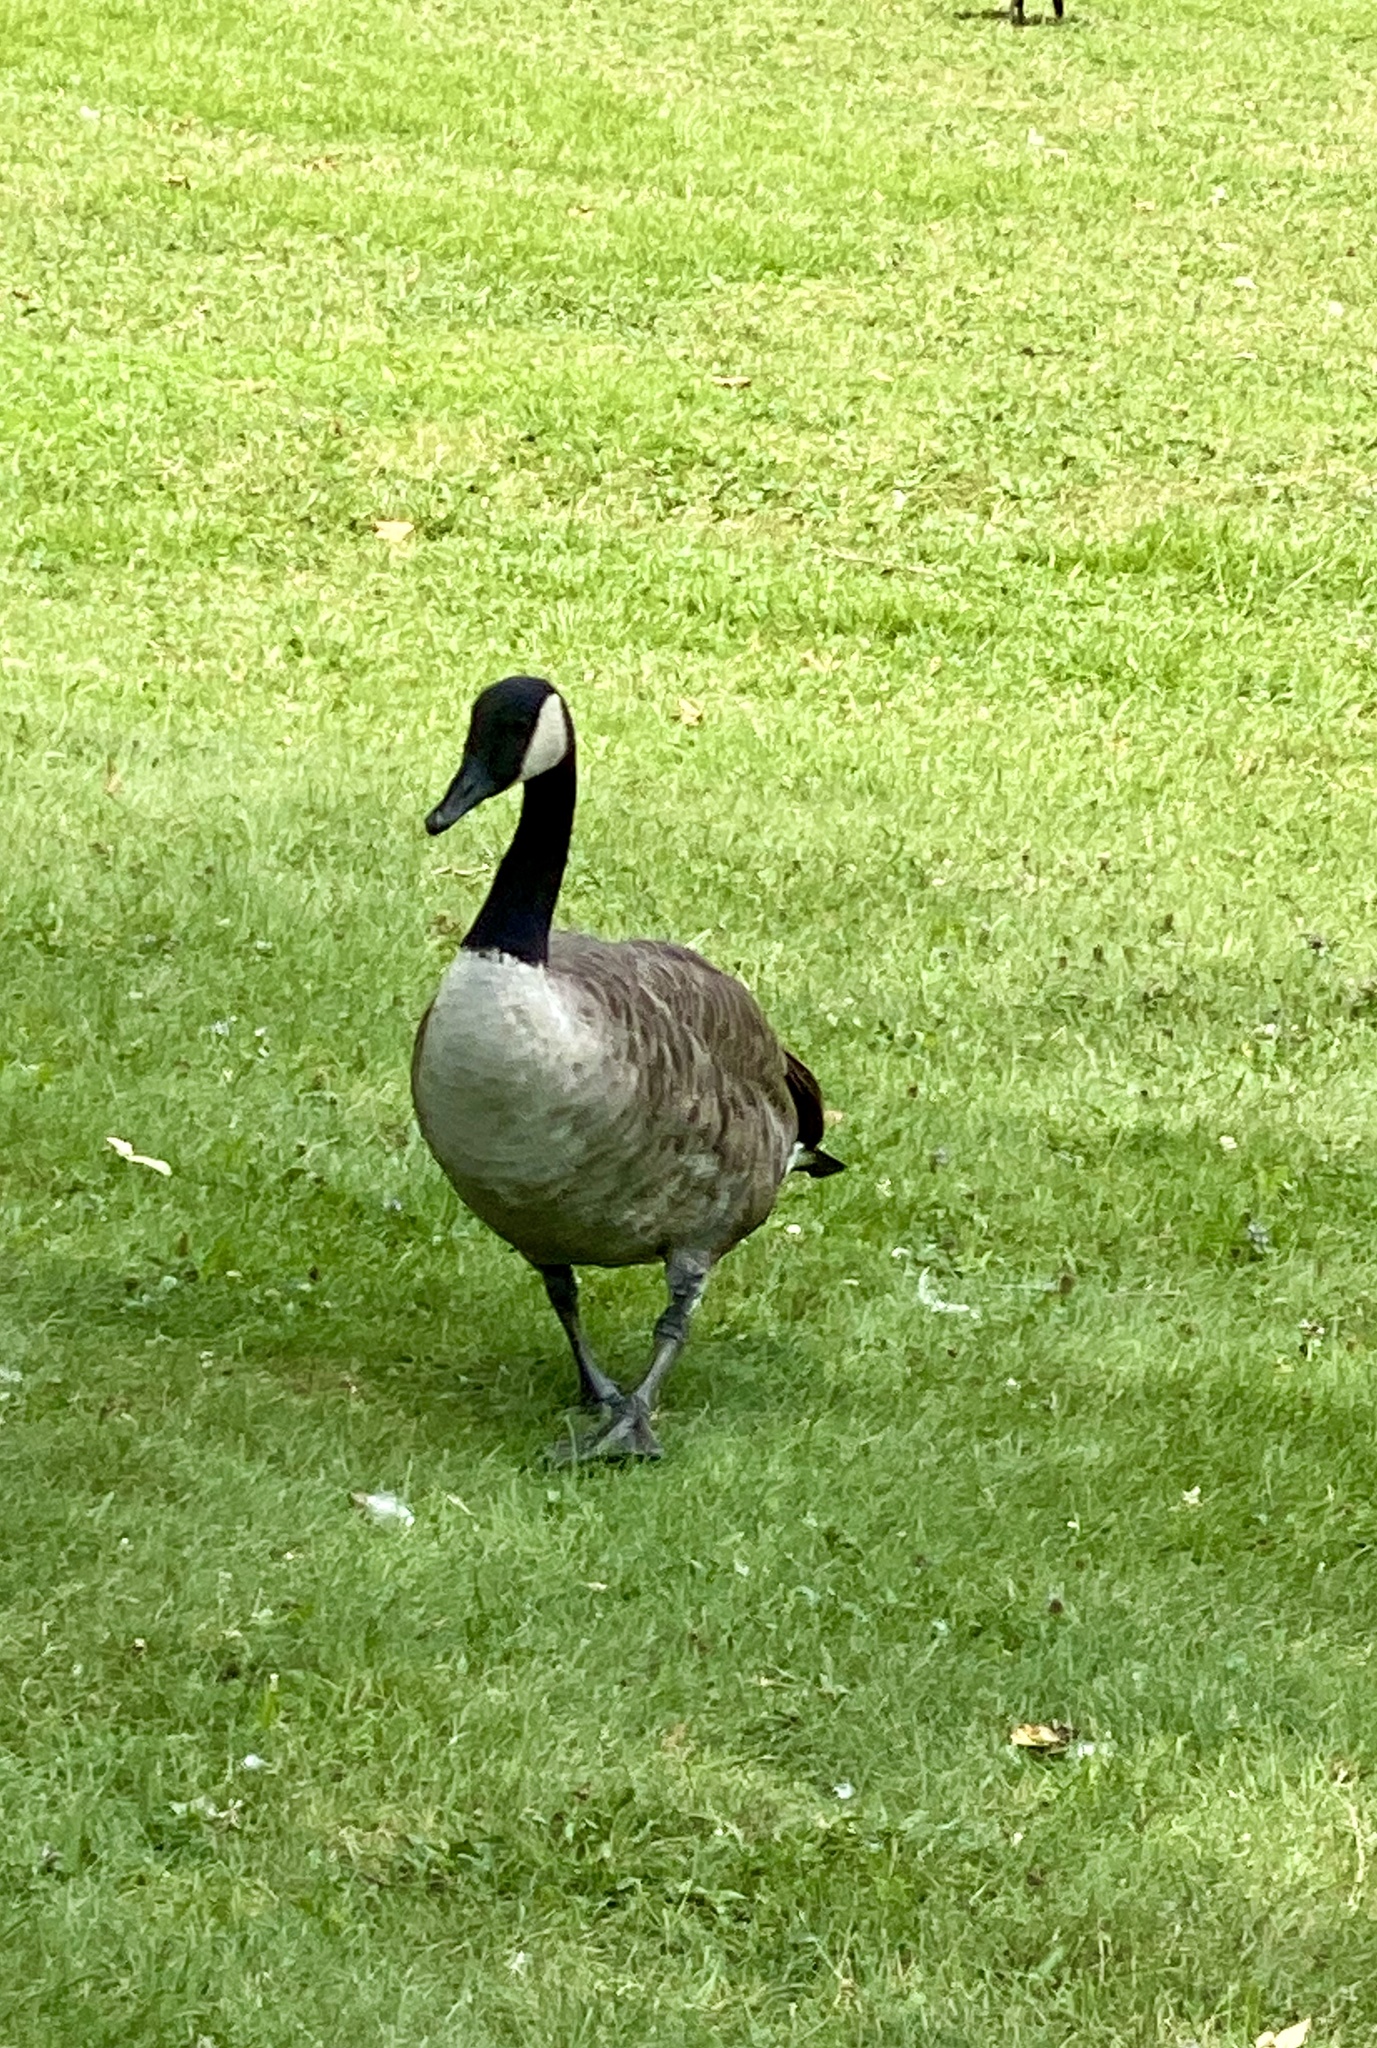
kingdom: Animalia
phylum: Chordata
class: Aves
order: Anseriformes
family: Anatidae
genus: Branta
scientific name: Branta canadensis
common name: Canada goose
